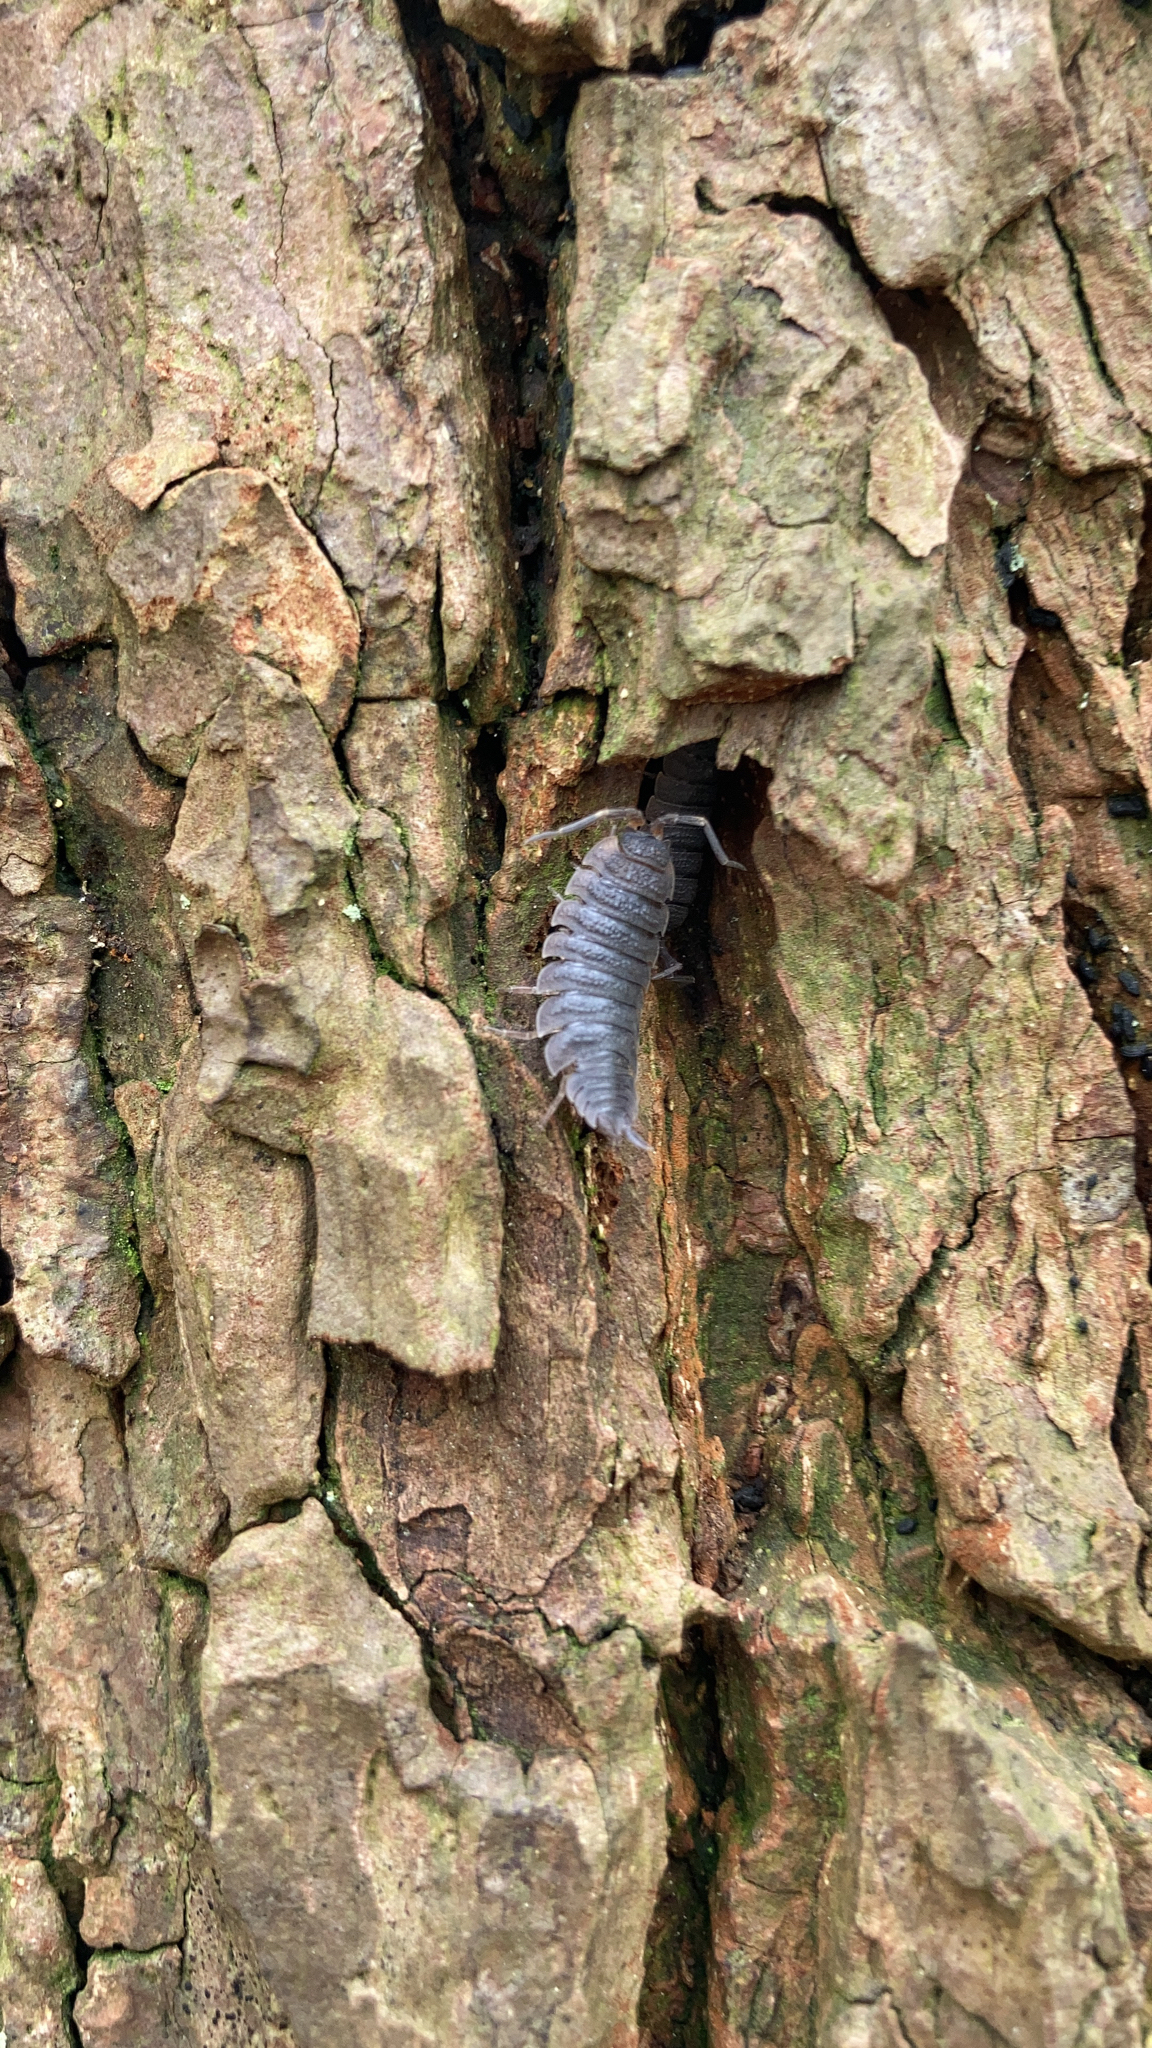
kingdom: Animalia
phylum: Arthropoda
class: Malacostraca
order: Isopoda
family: Porcellionidae
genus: Porcellio
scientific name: Porcellio scaber
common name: Common rough woodlouse
